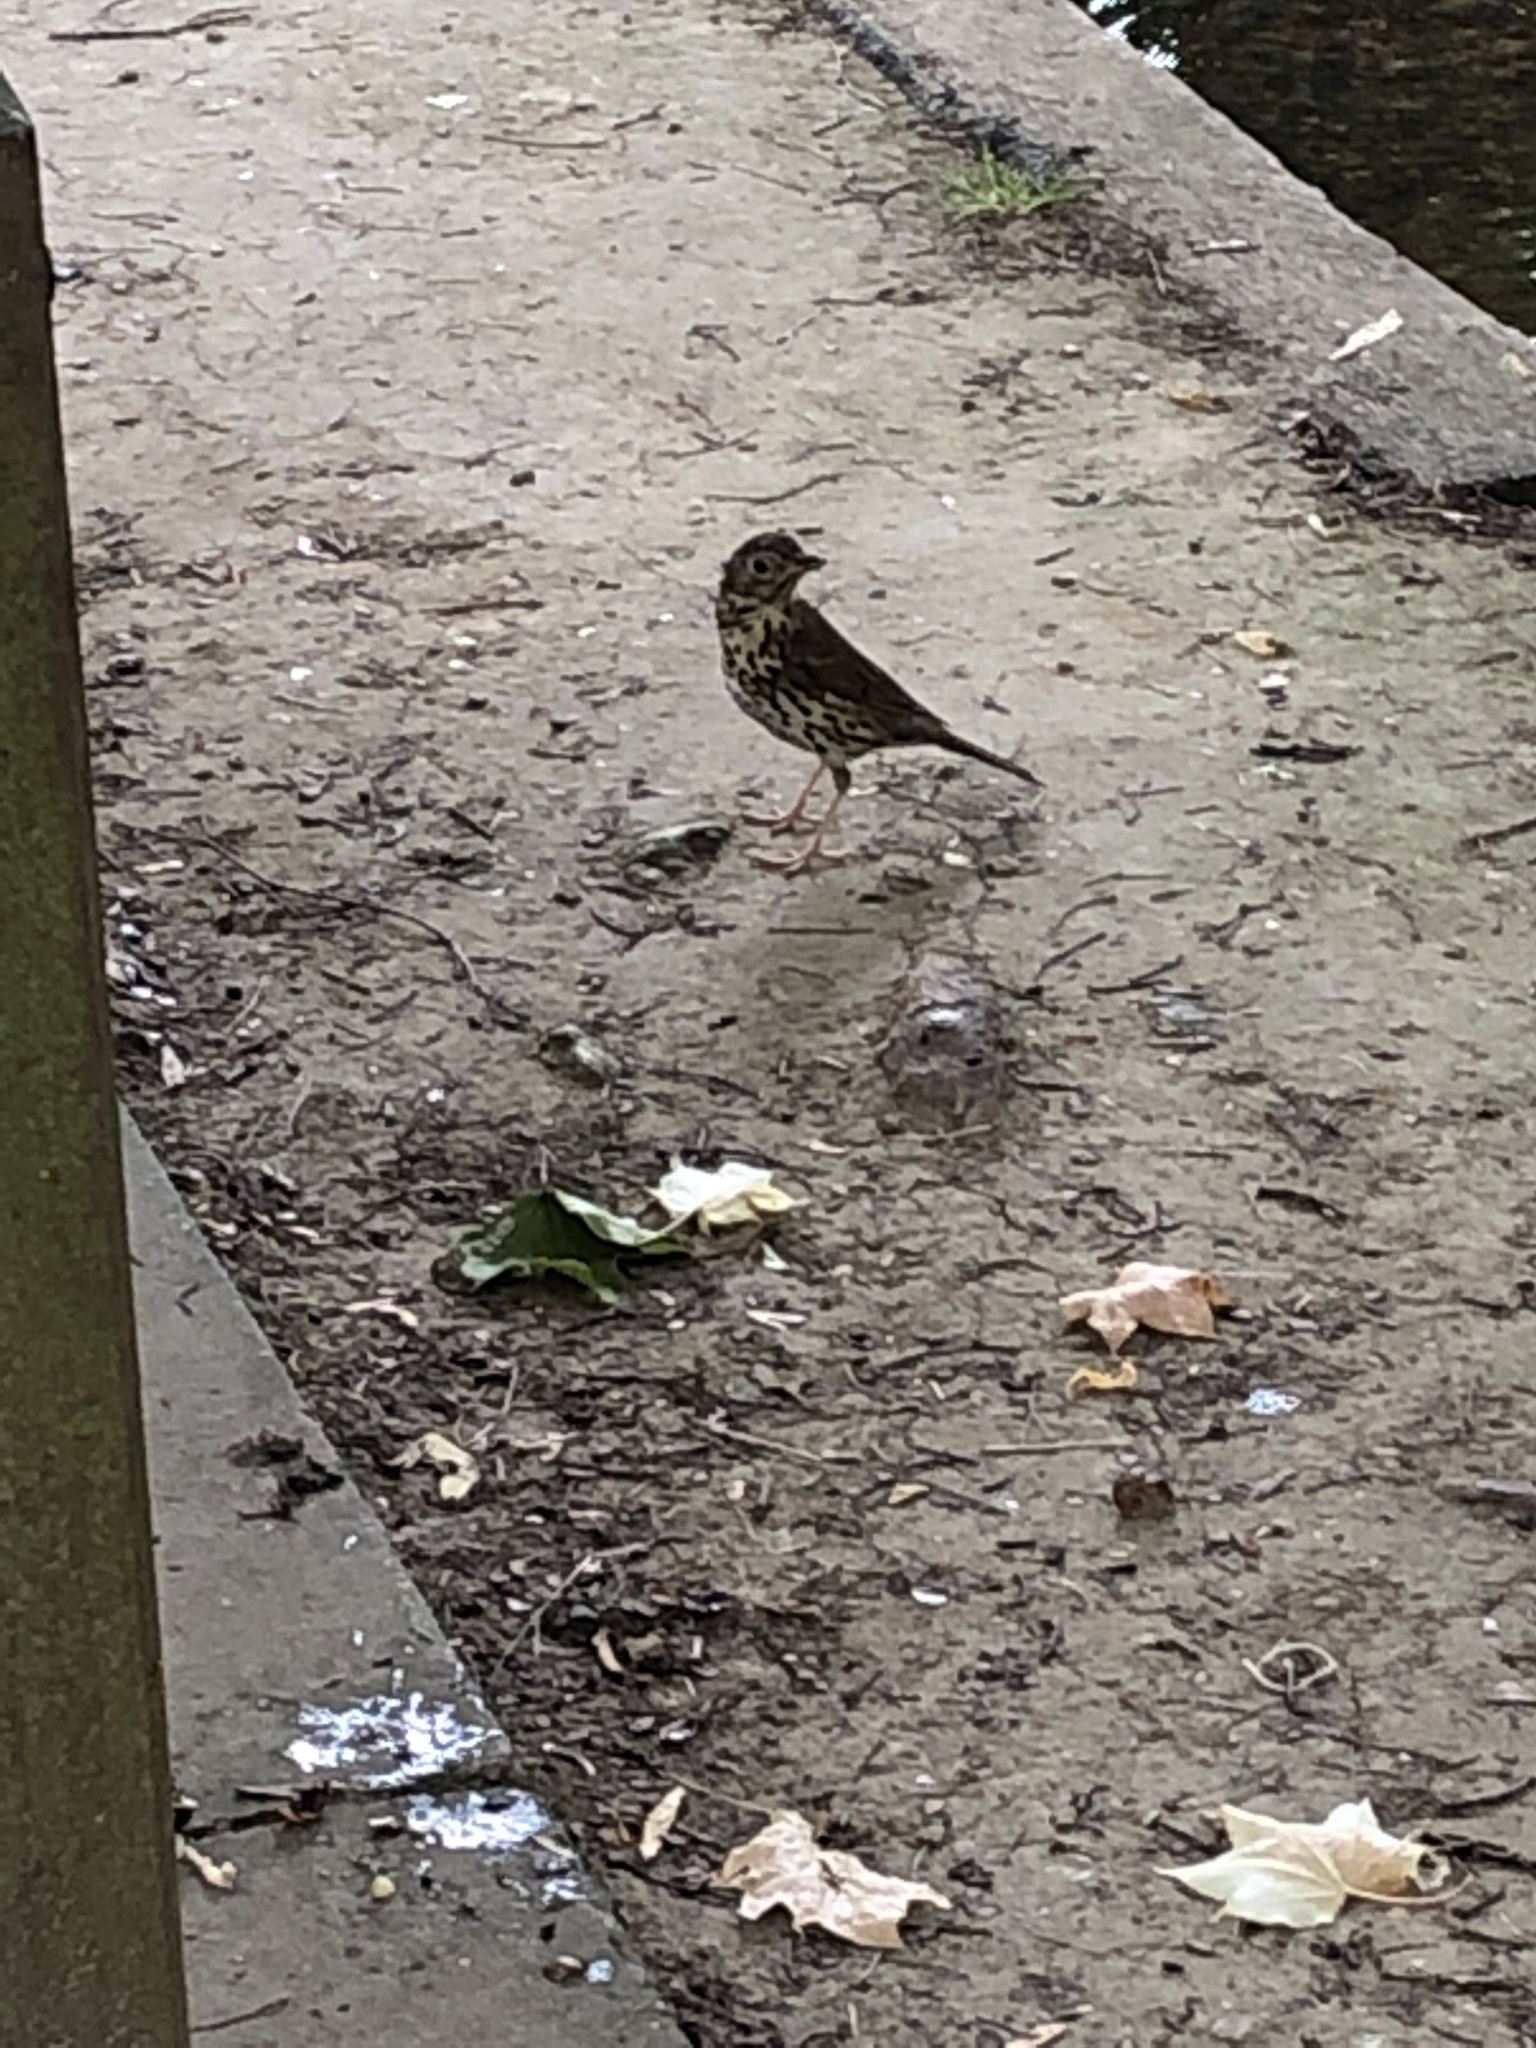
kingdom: Animalia
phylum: Chordata
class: Aves
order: Passeriformes
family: Turdidae
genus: Turdus
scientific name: Turdus philomelos
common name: Song thrush
